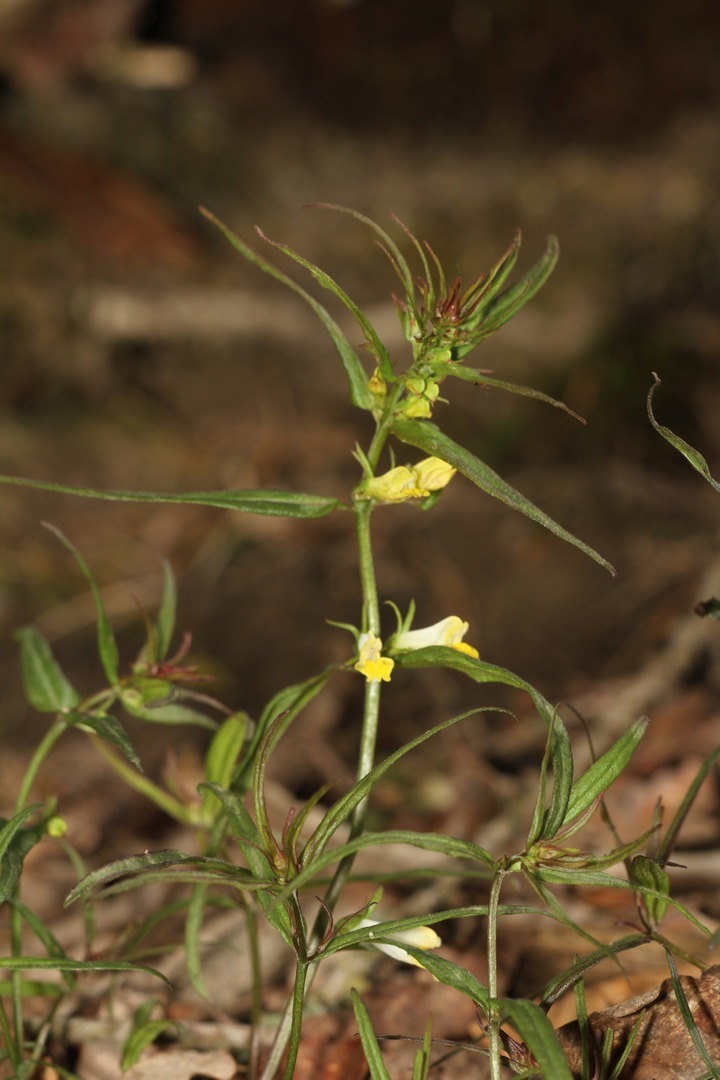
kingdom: Plantae
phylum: Tracheophyta
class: Magnoliopsida
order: Lamiales
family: Orobanchaceae
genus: Melampyrum
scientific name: Melampyrum pratense
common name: Common cow-wheat
